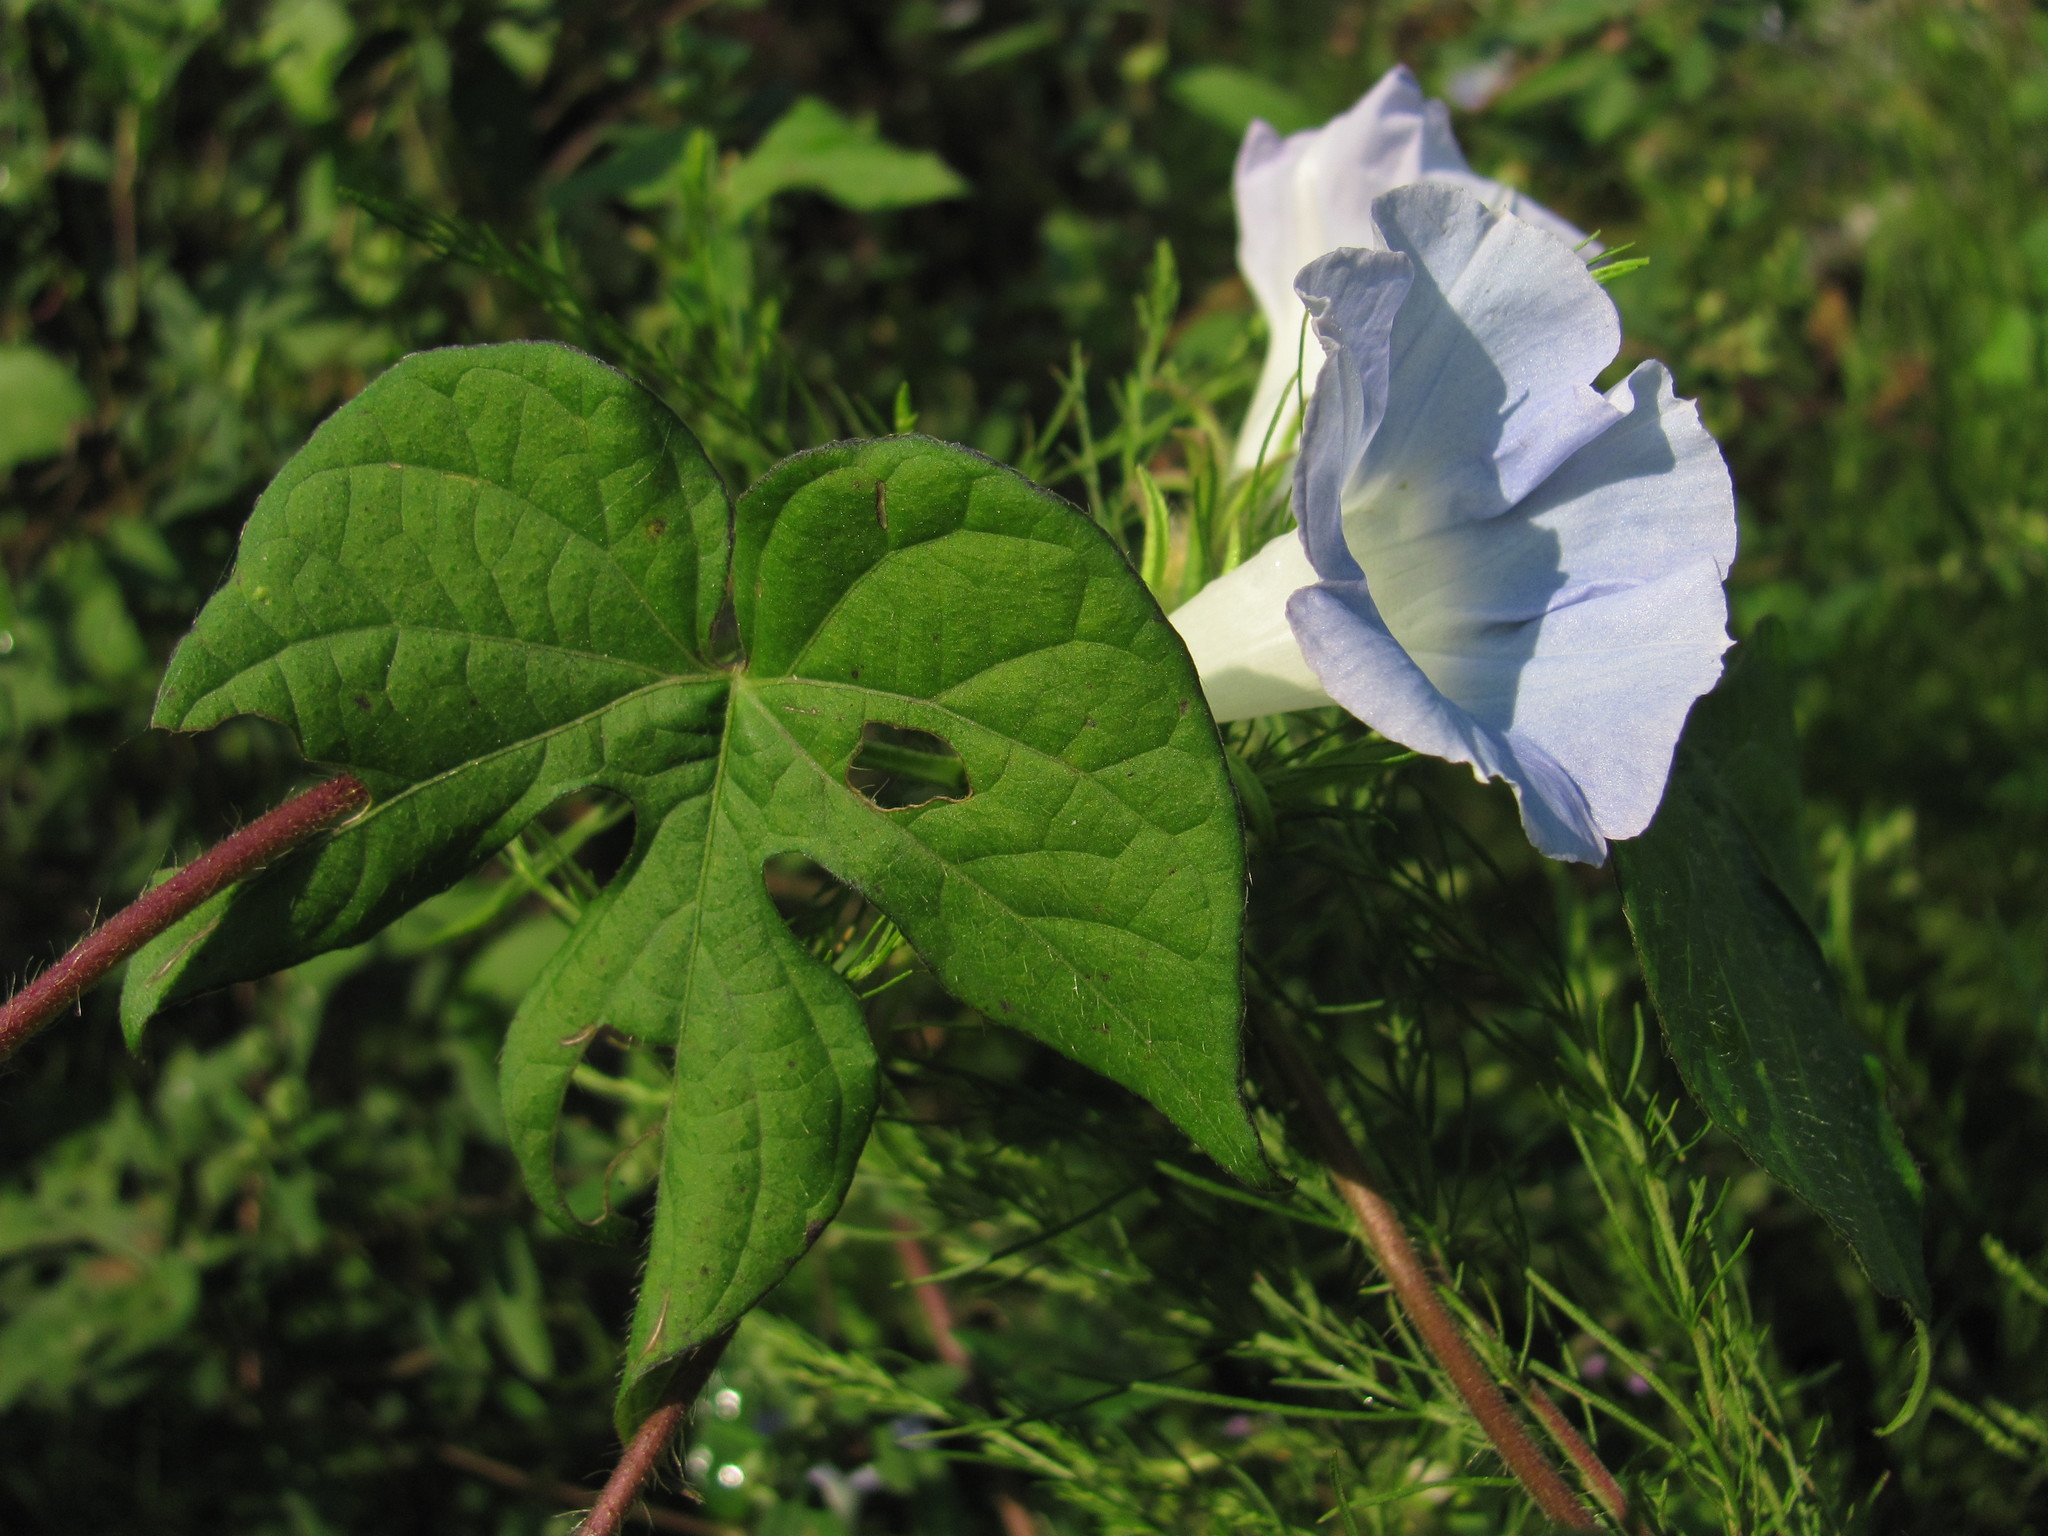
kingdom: Plantae
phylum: Tracheophyta
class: Magnoliopsida
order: Solanales
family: Convolvulaceae
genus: Ipomoea
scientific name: Ipomoea hederacea
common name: Ivy-leaved morning-glory
